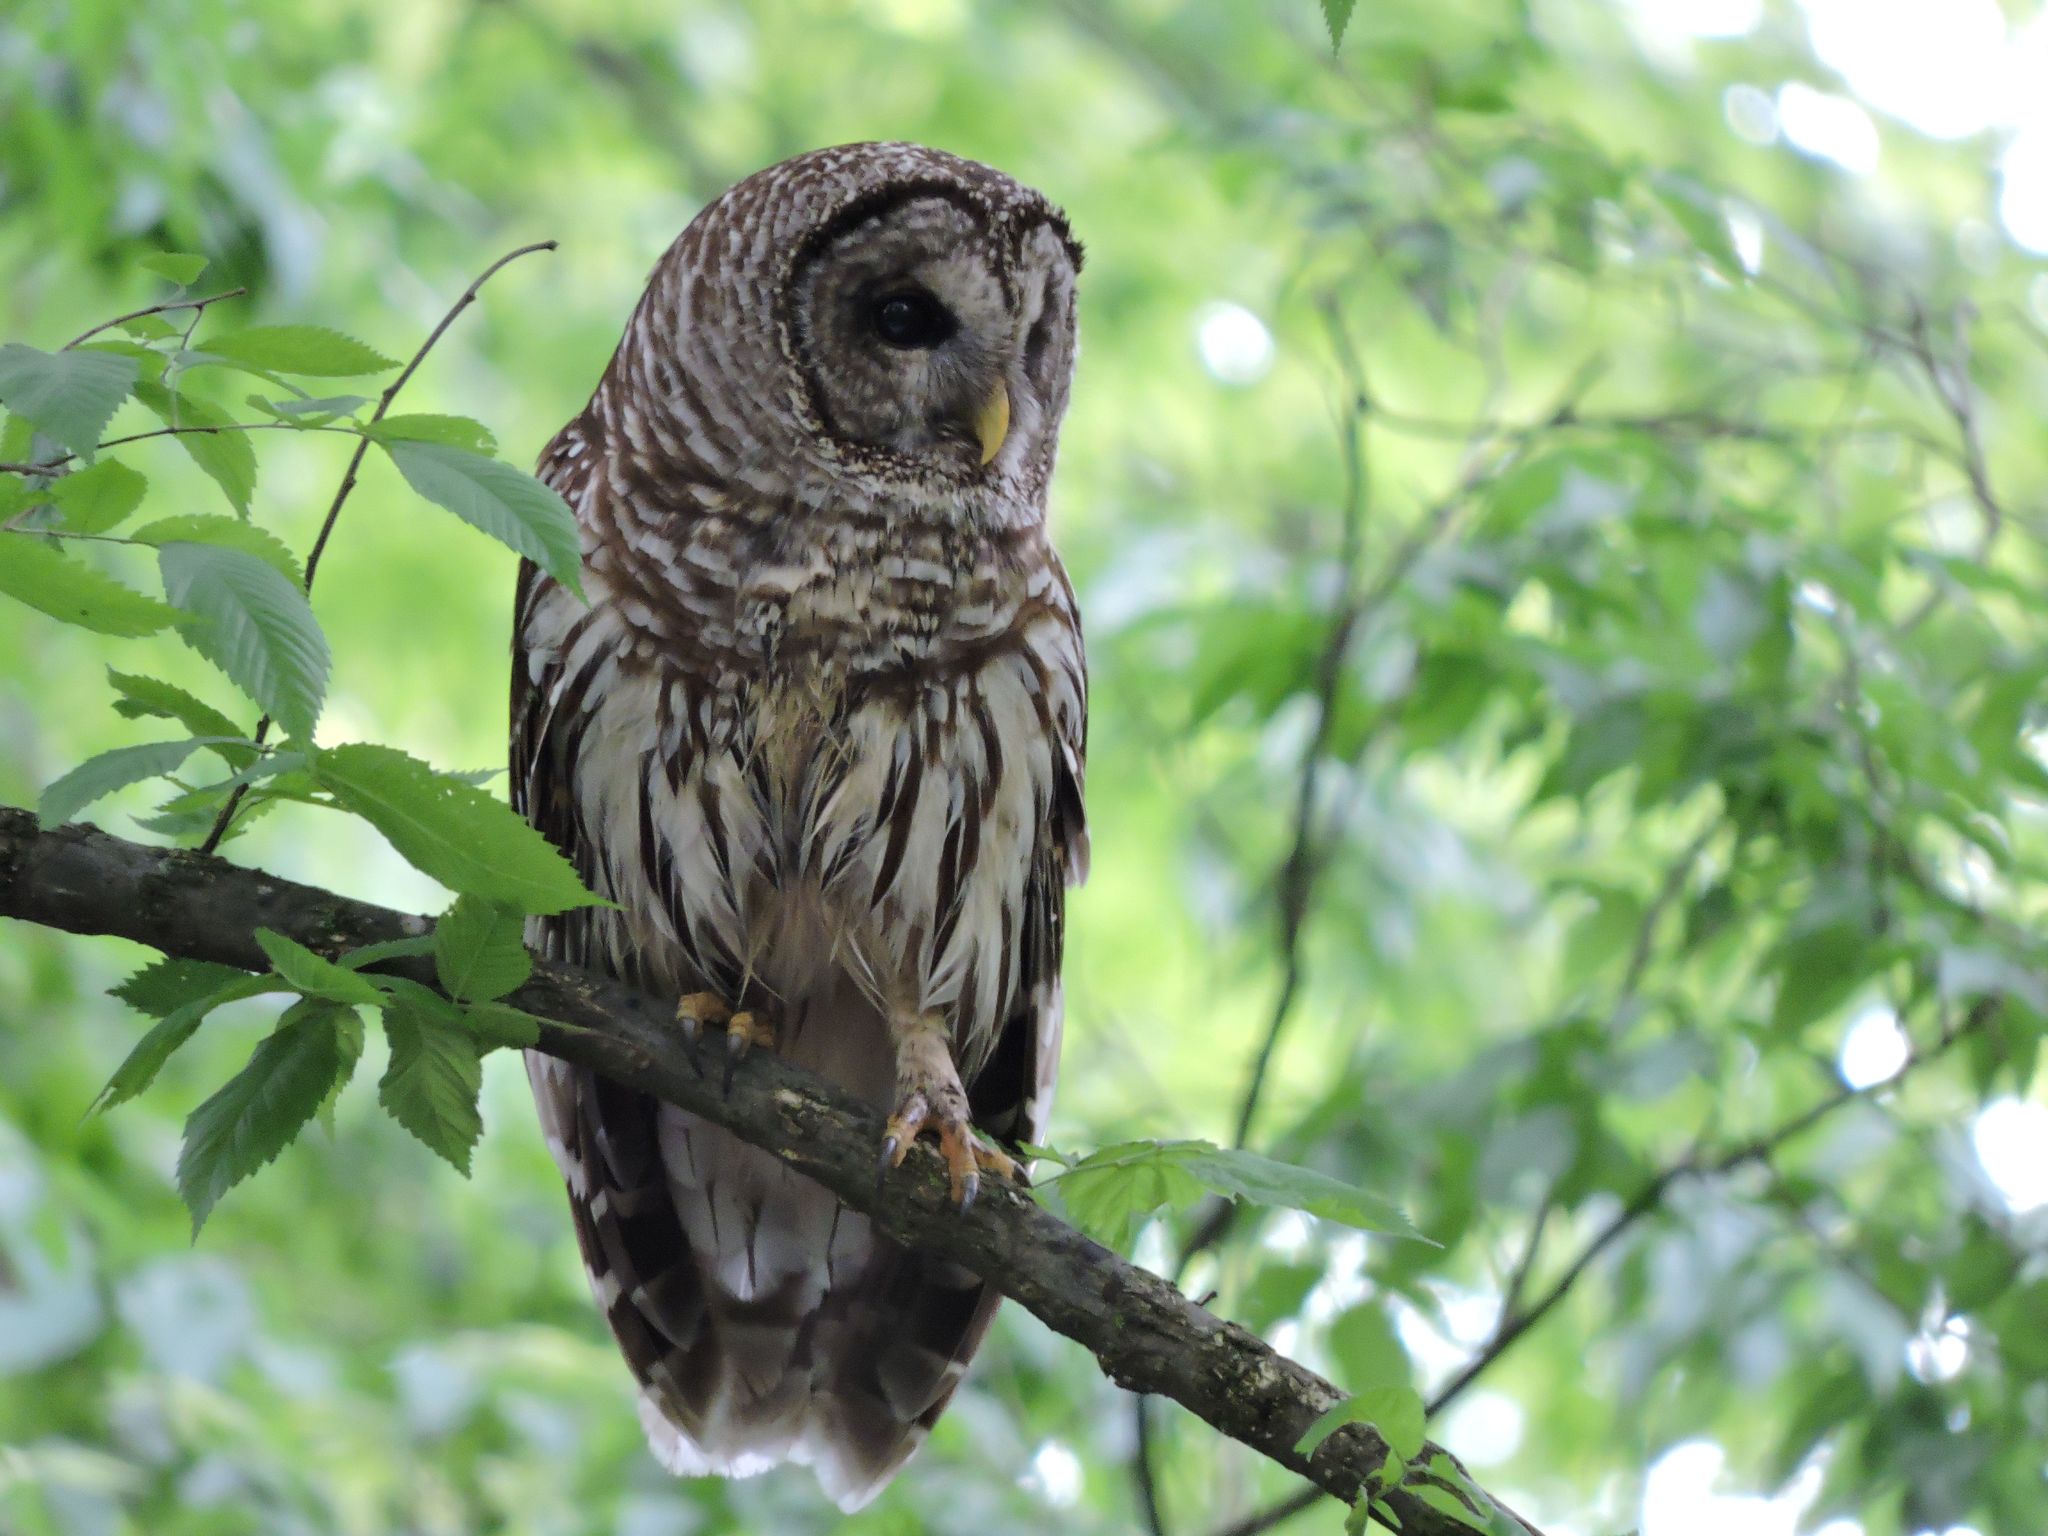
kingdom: Animalia
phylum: Chordata
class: Aves
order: Strigiformes
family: Strigidae
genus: Strix
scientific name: Strix varia
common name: Barred owl
